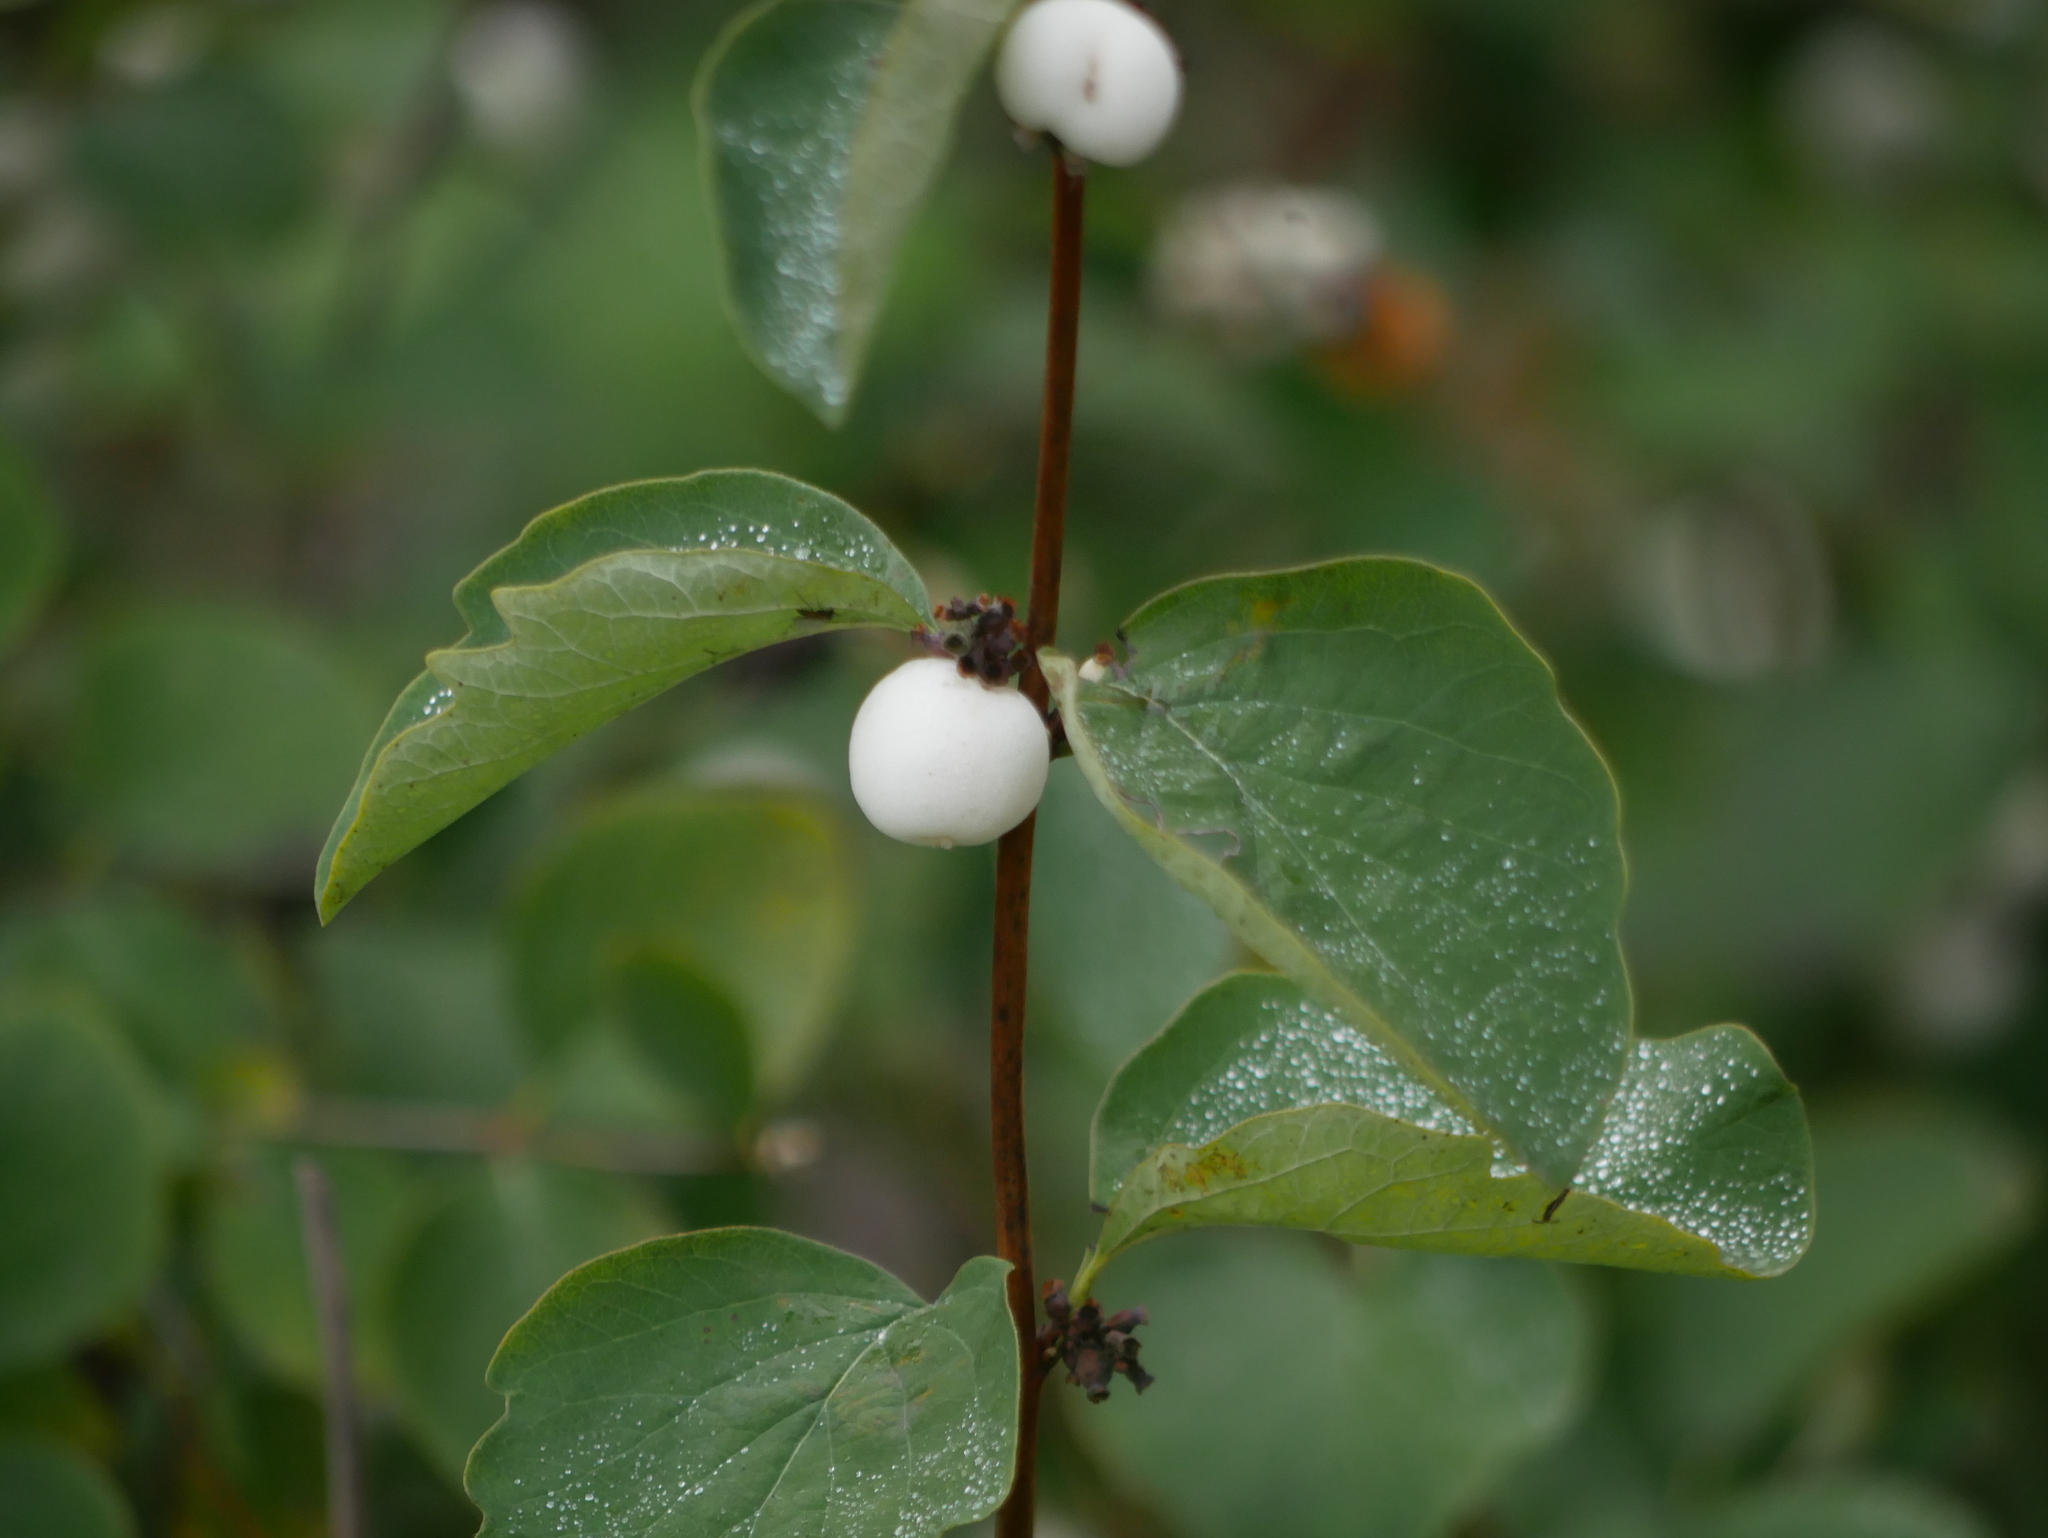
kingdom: Plantae
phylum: Tracheophyta
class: Magnoliopsida
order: Dipsacales
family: Caprifoliaceae
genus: Symphoricarpos
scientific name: Symphoricarpos albus
